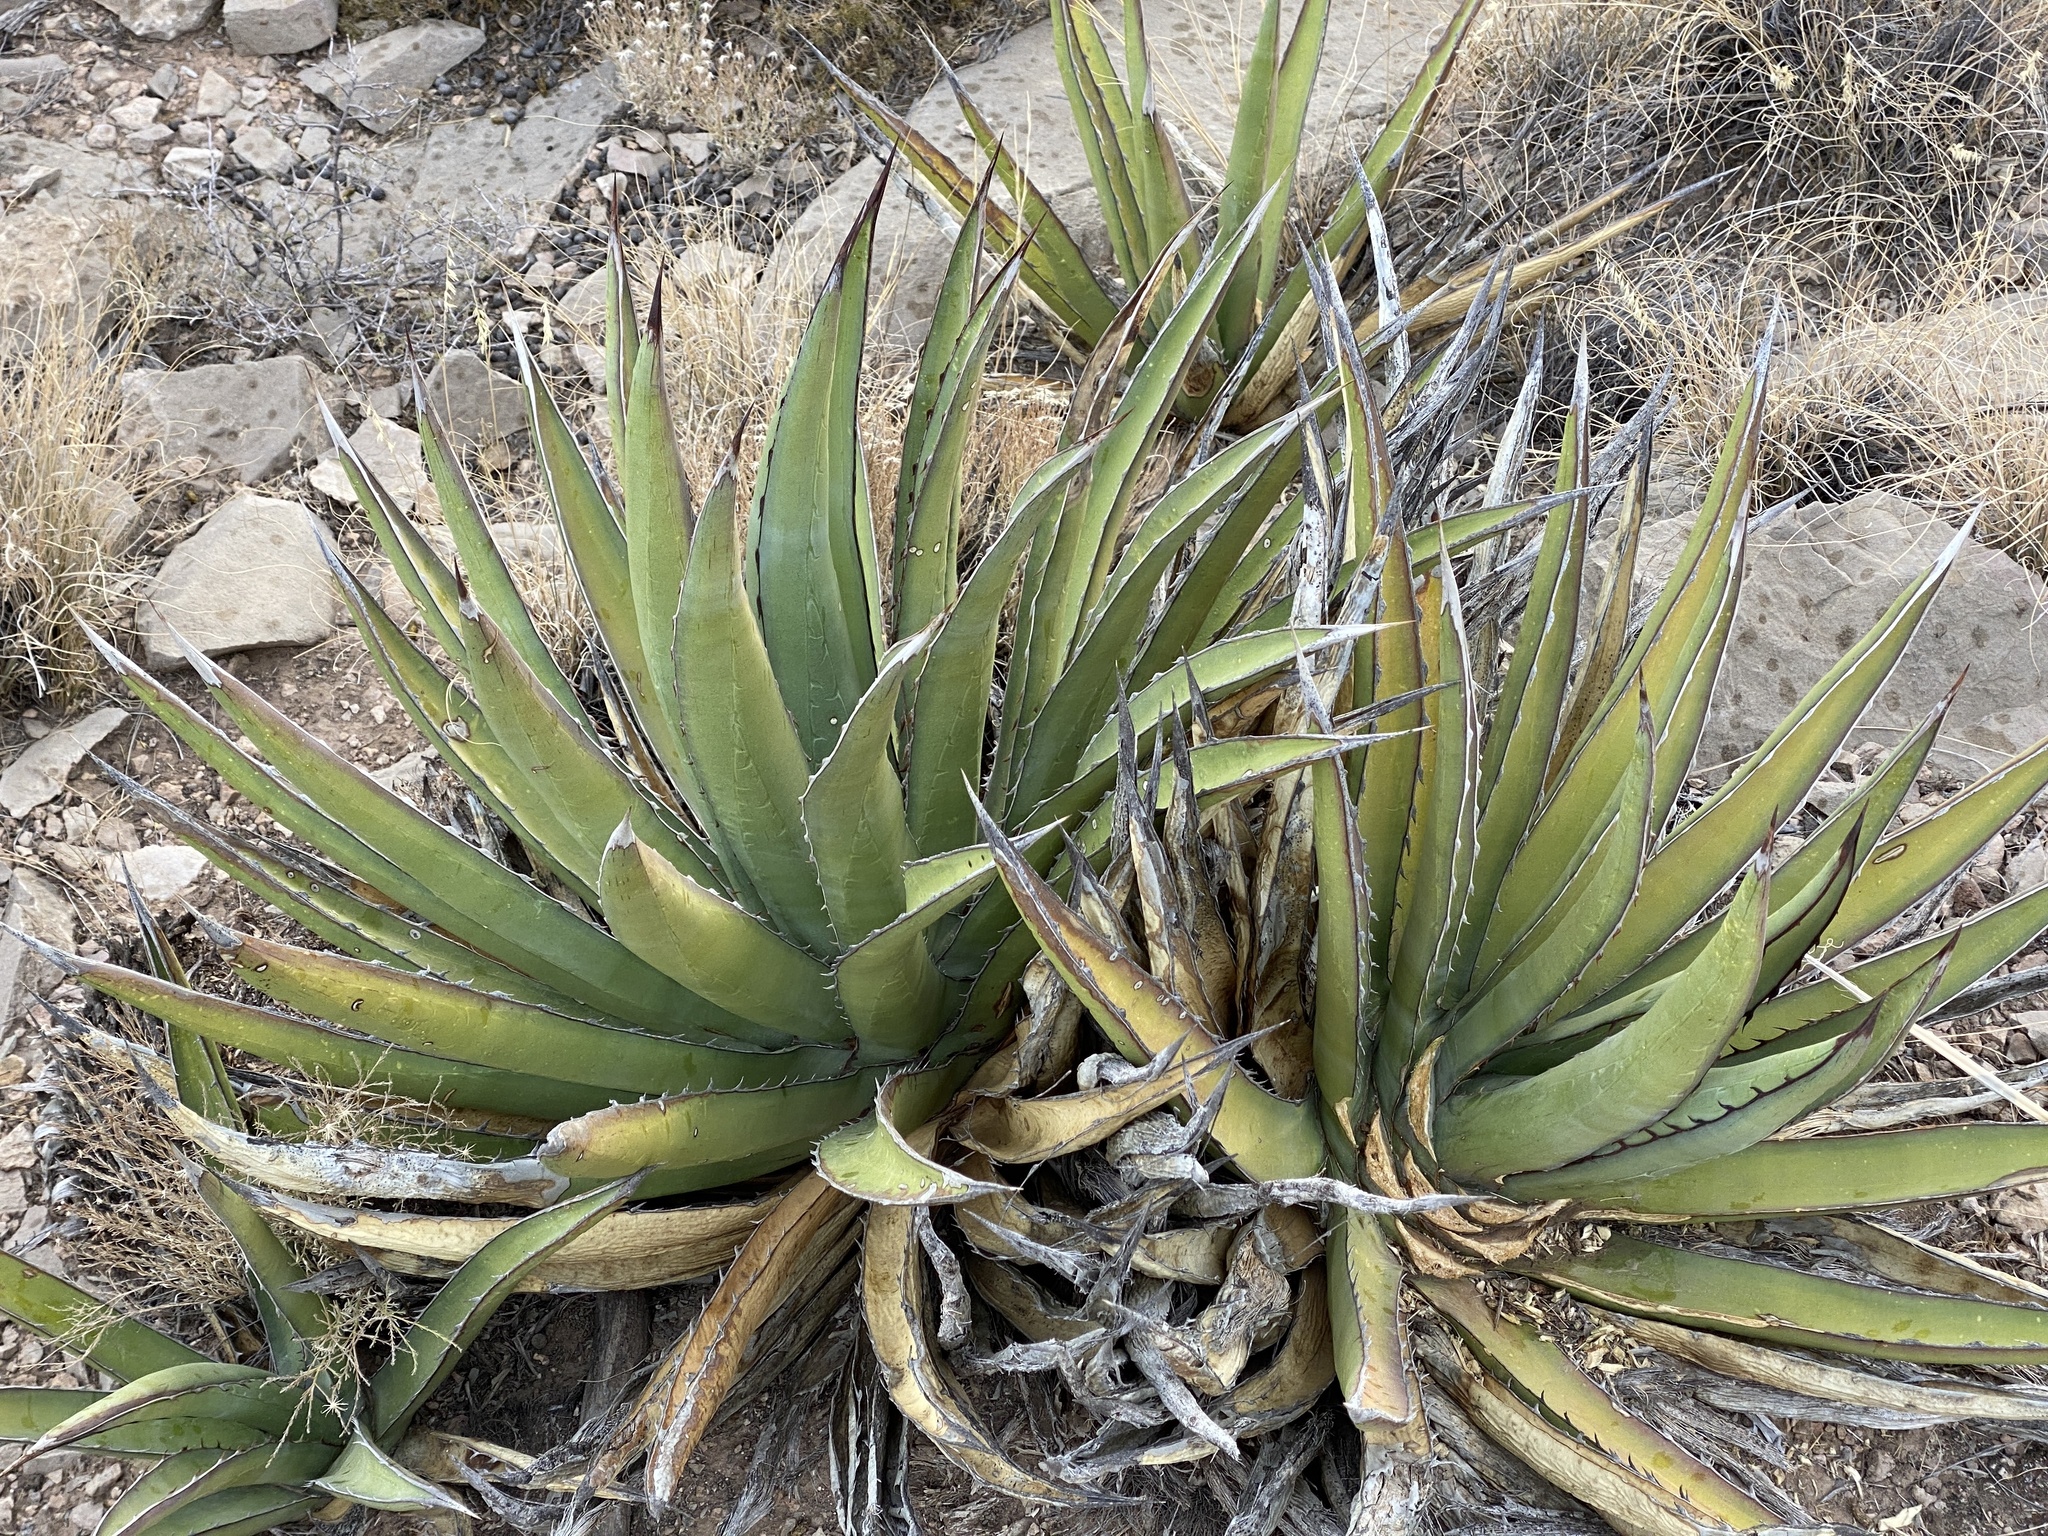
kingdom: Plantae
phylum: Tracheophyta
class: Liliopsida
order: Asparagales
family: Asparagaceae
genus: Agave
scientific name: Agave lechuguilla
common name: Lecheguilla agave
